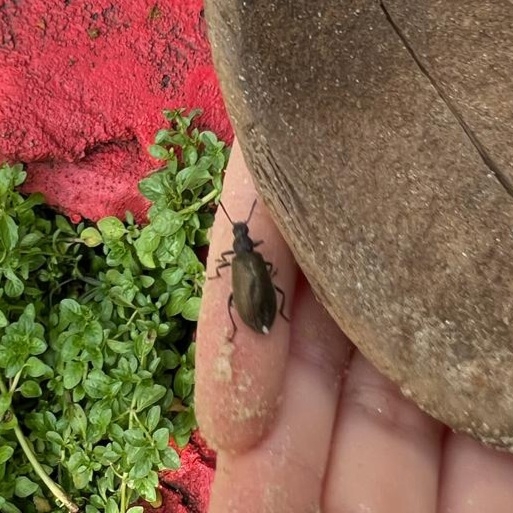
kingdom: Animalia
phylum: Arthropoda
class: Insecta
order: Coleoptera
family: Tenebrionidae
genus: Lagria
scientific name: Lagria villosa
